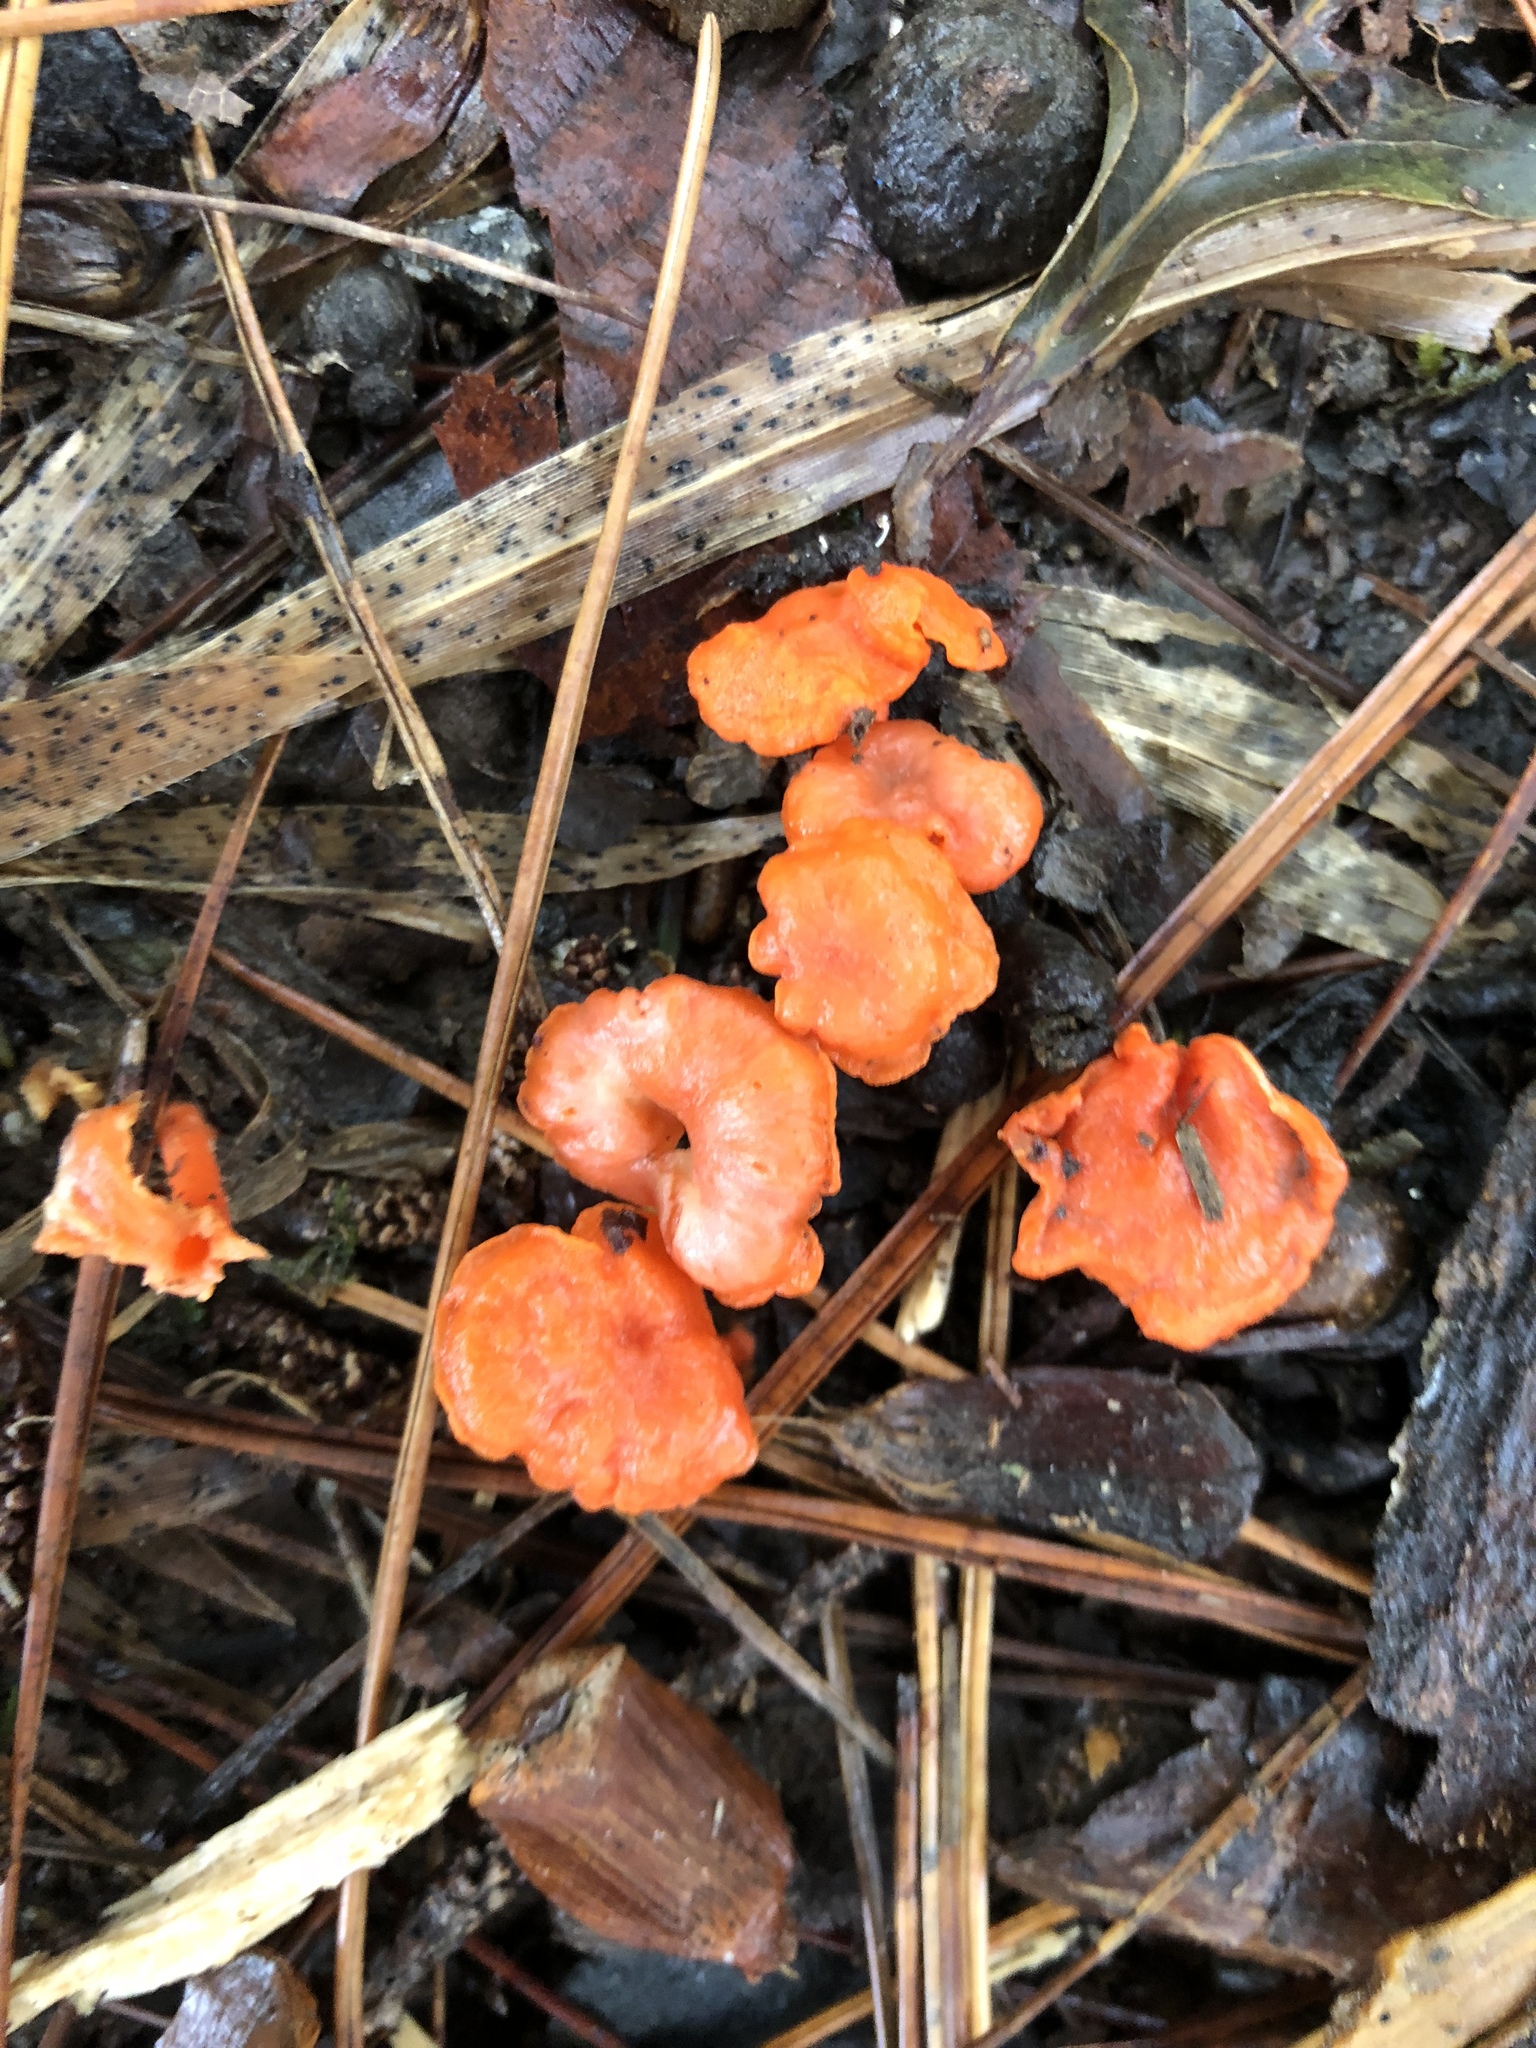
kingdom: Fungi
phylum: Basidiomycota
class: Agaricomycetes
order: Cantharellales
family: Hydnaceae
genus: Cantharellus
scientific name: Cantharellus cinnabarinus
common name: Cinnabar chanterelle
